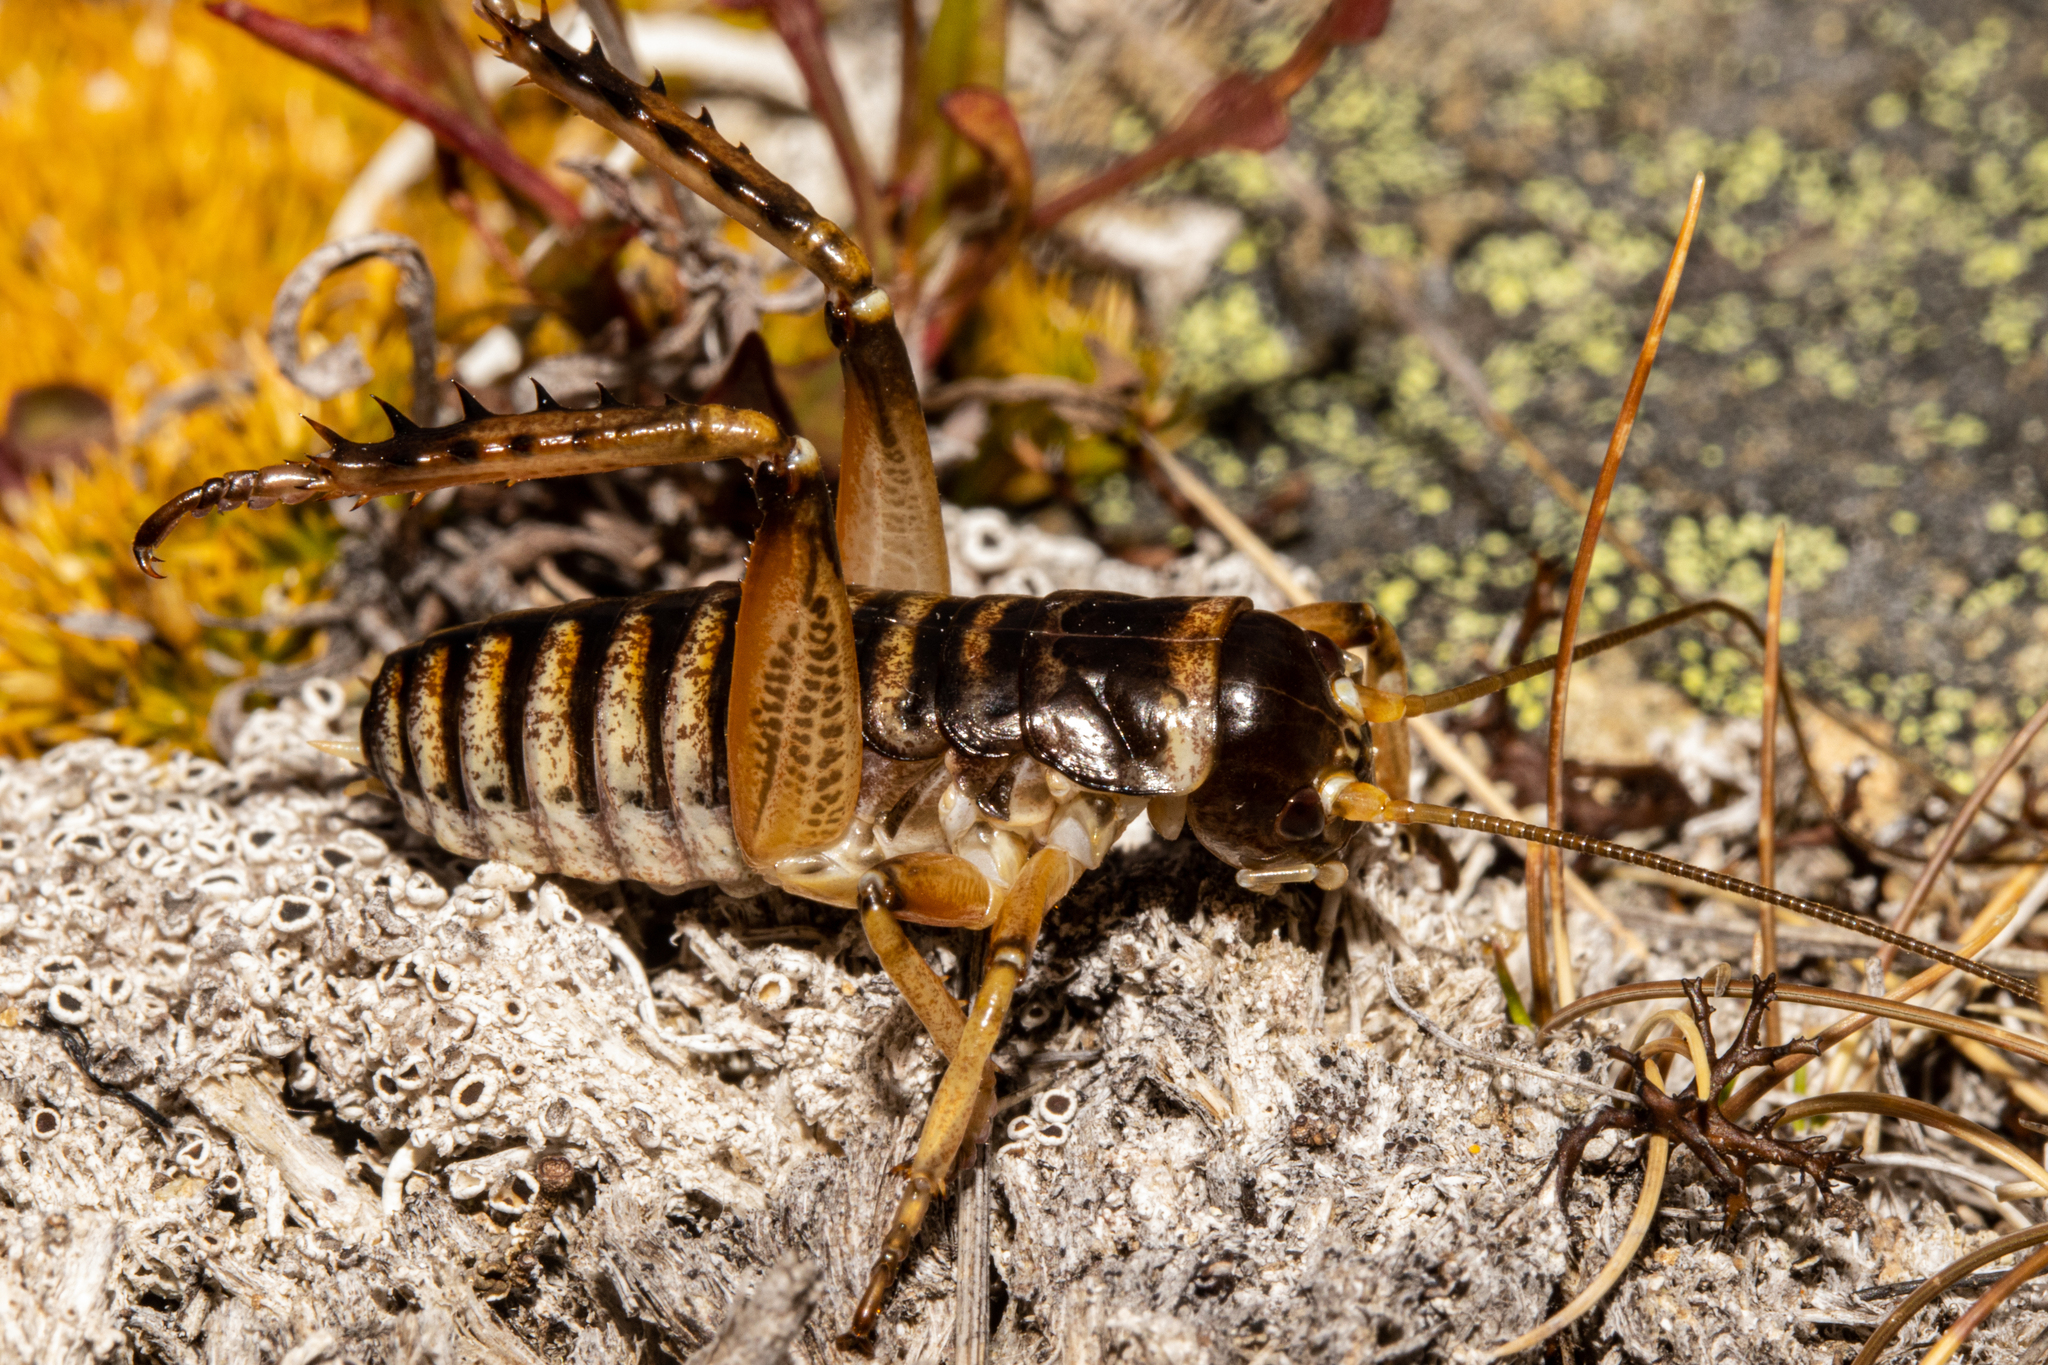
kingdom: Animalia
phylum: Arthropoda
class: Insecta
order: Orthoptera
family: Anostostomatidae
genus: Hemideina
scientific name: Hemideina maori
